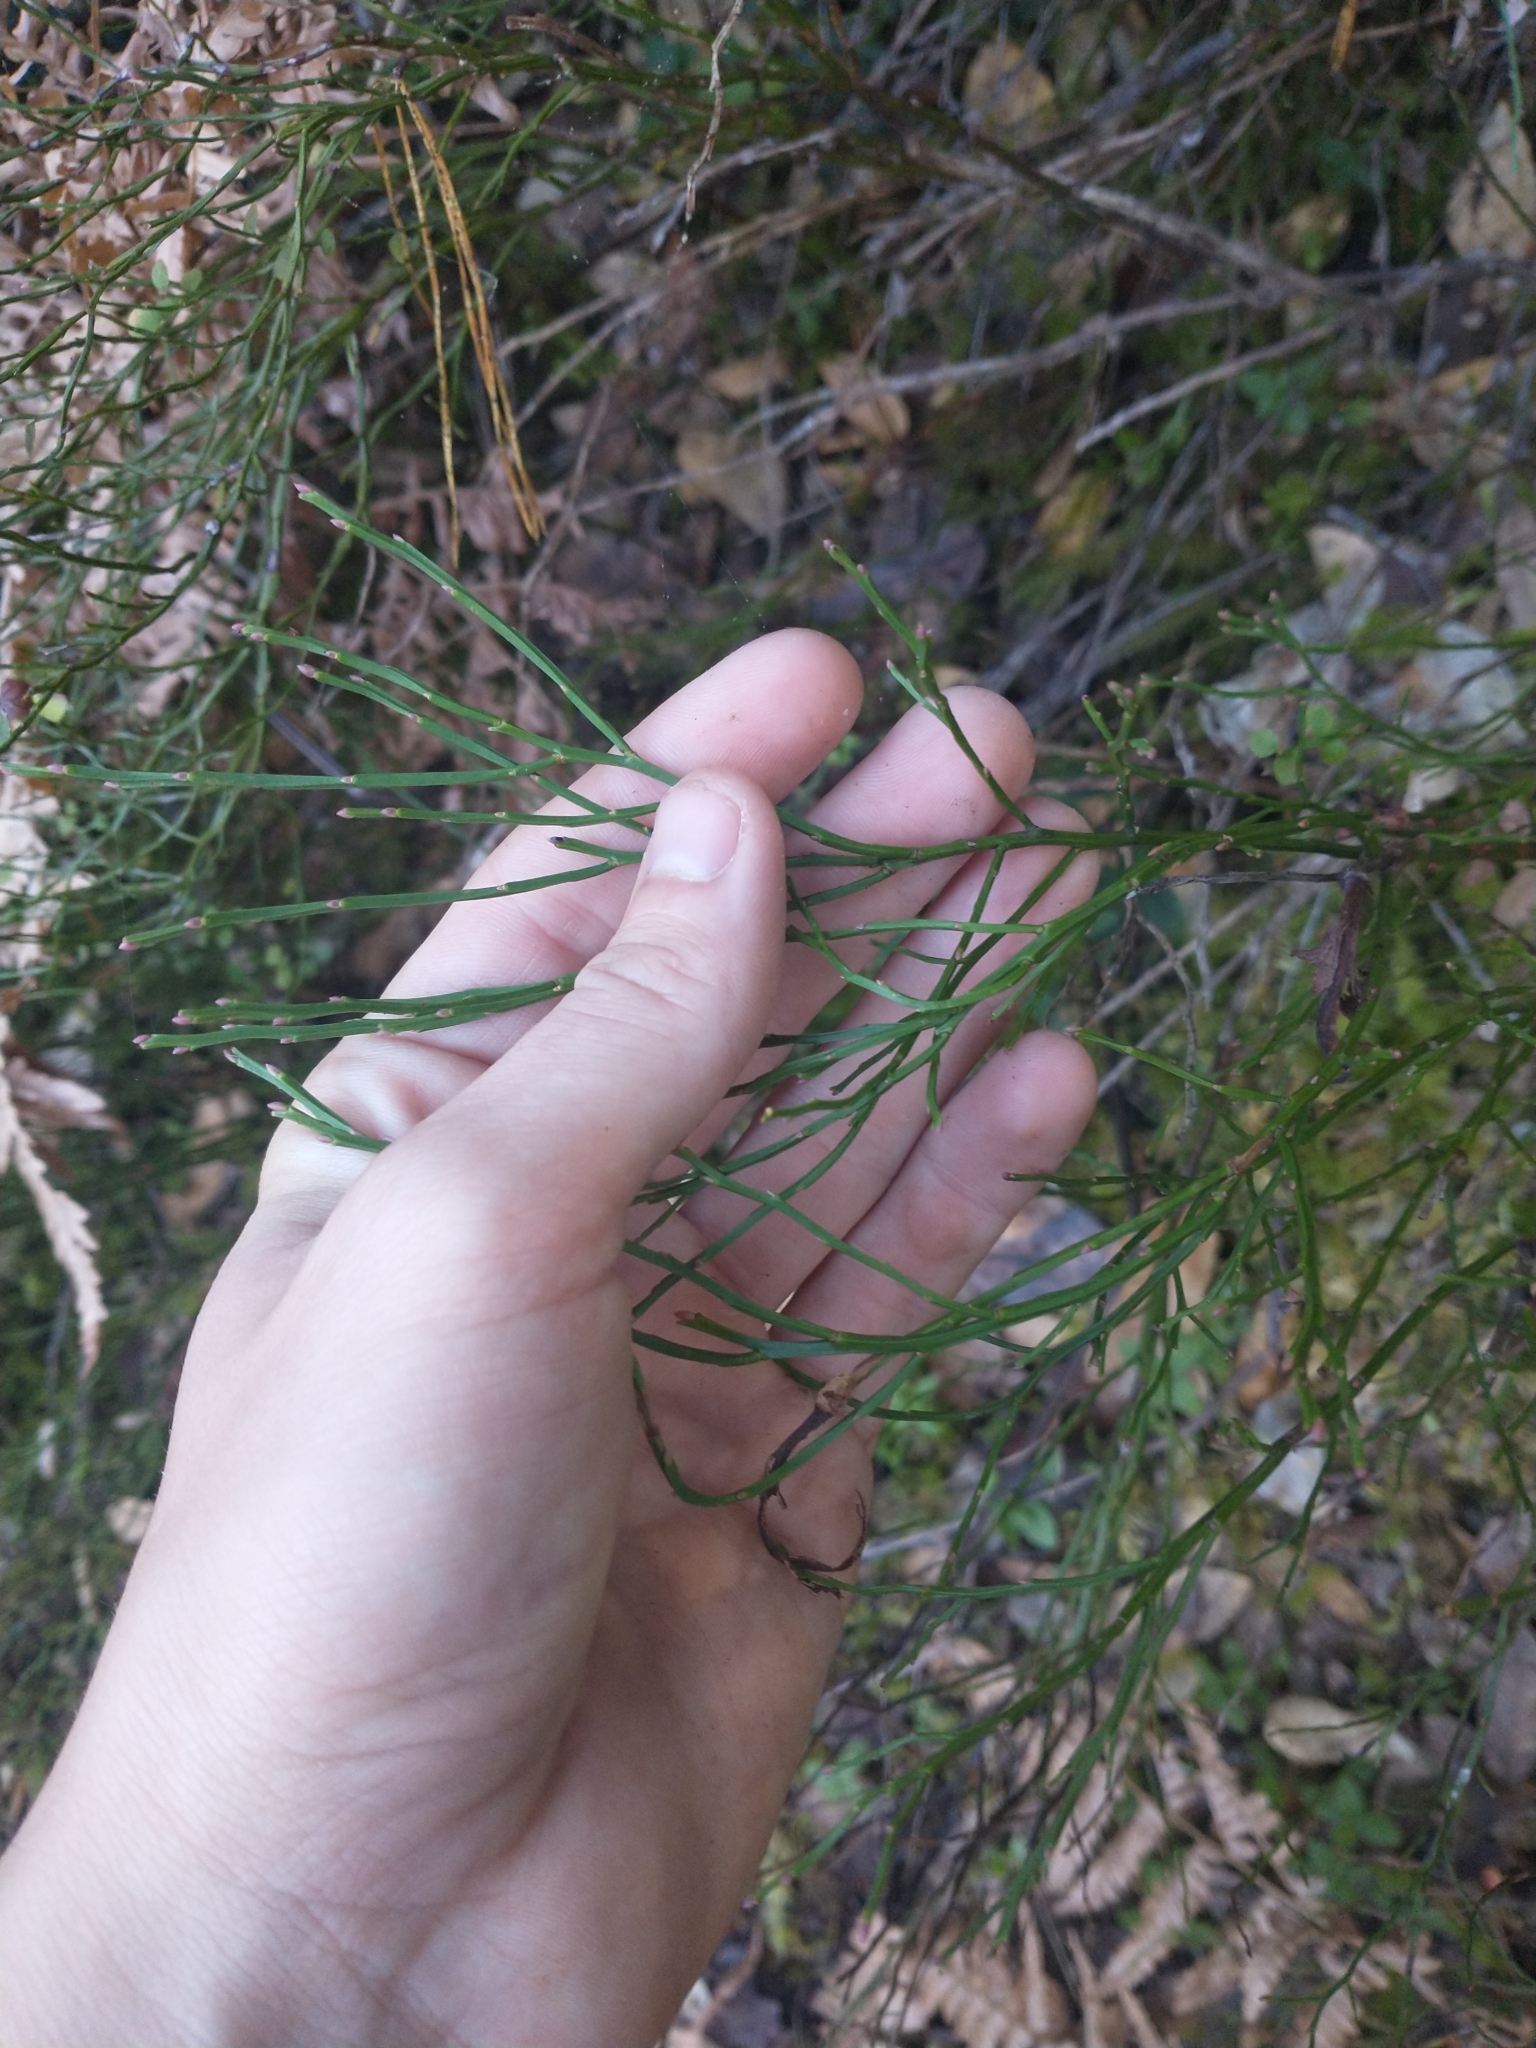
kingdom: Plantae
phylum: Tracheophyta
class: Magnoliopsida
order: Ericales
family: Ericaceae
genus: Vaccinium
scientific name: Vaccinium parvifolium
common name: Red-huckleberry
